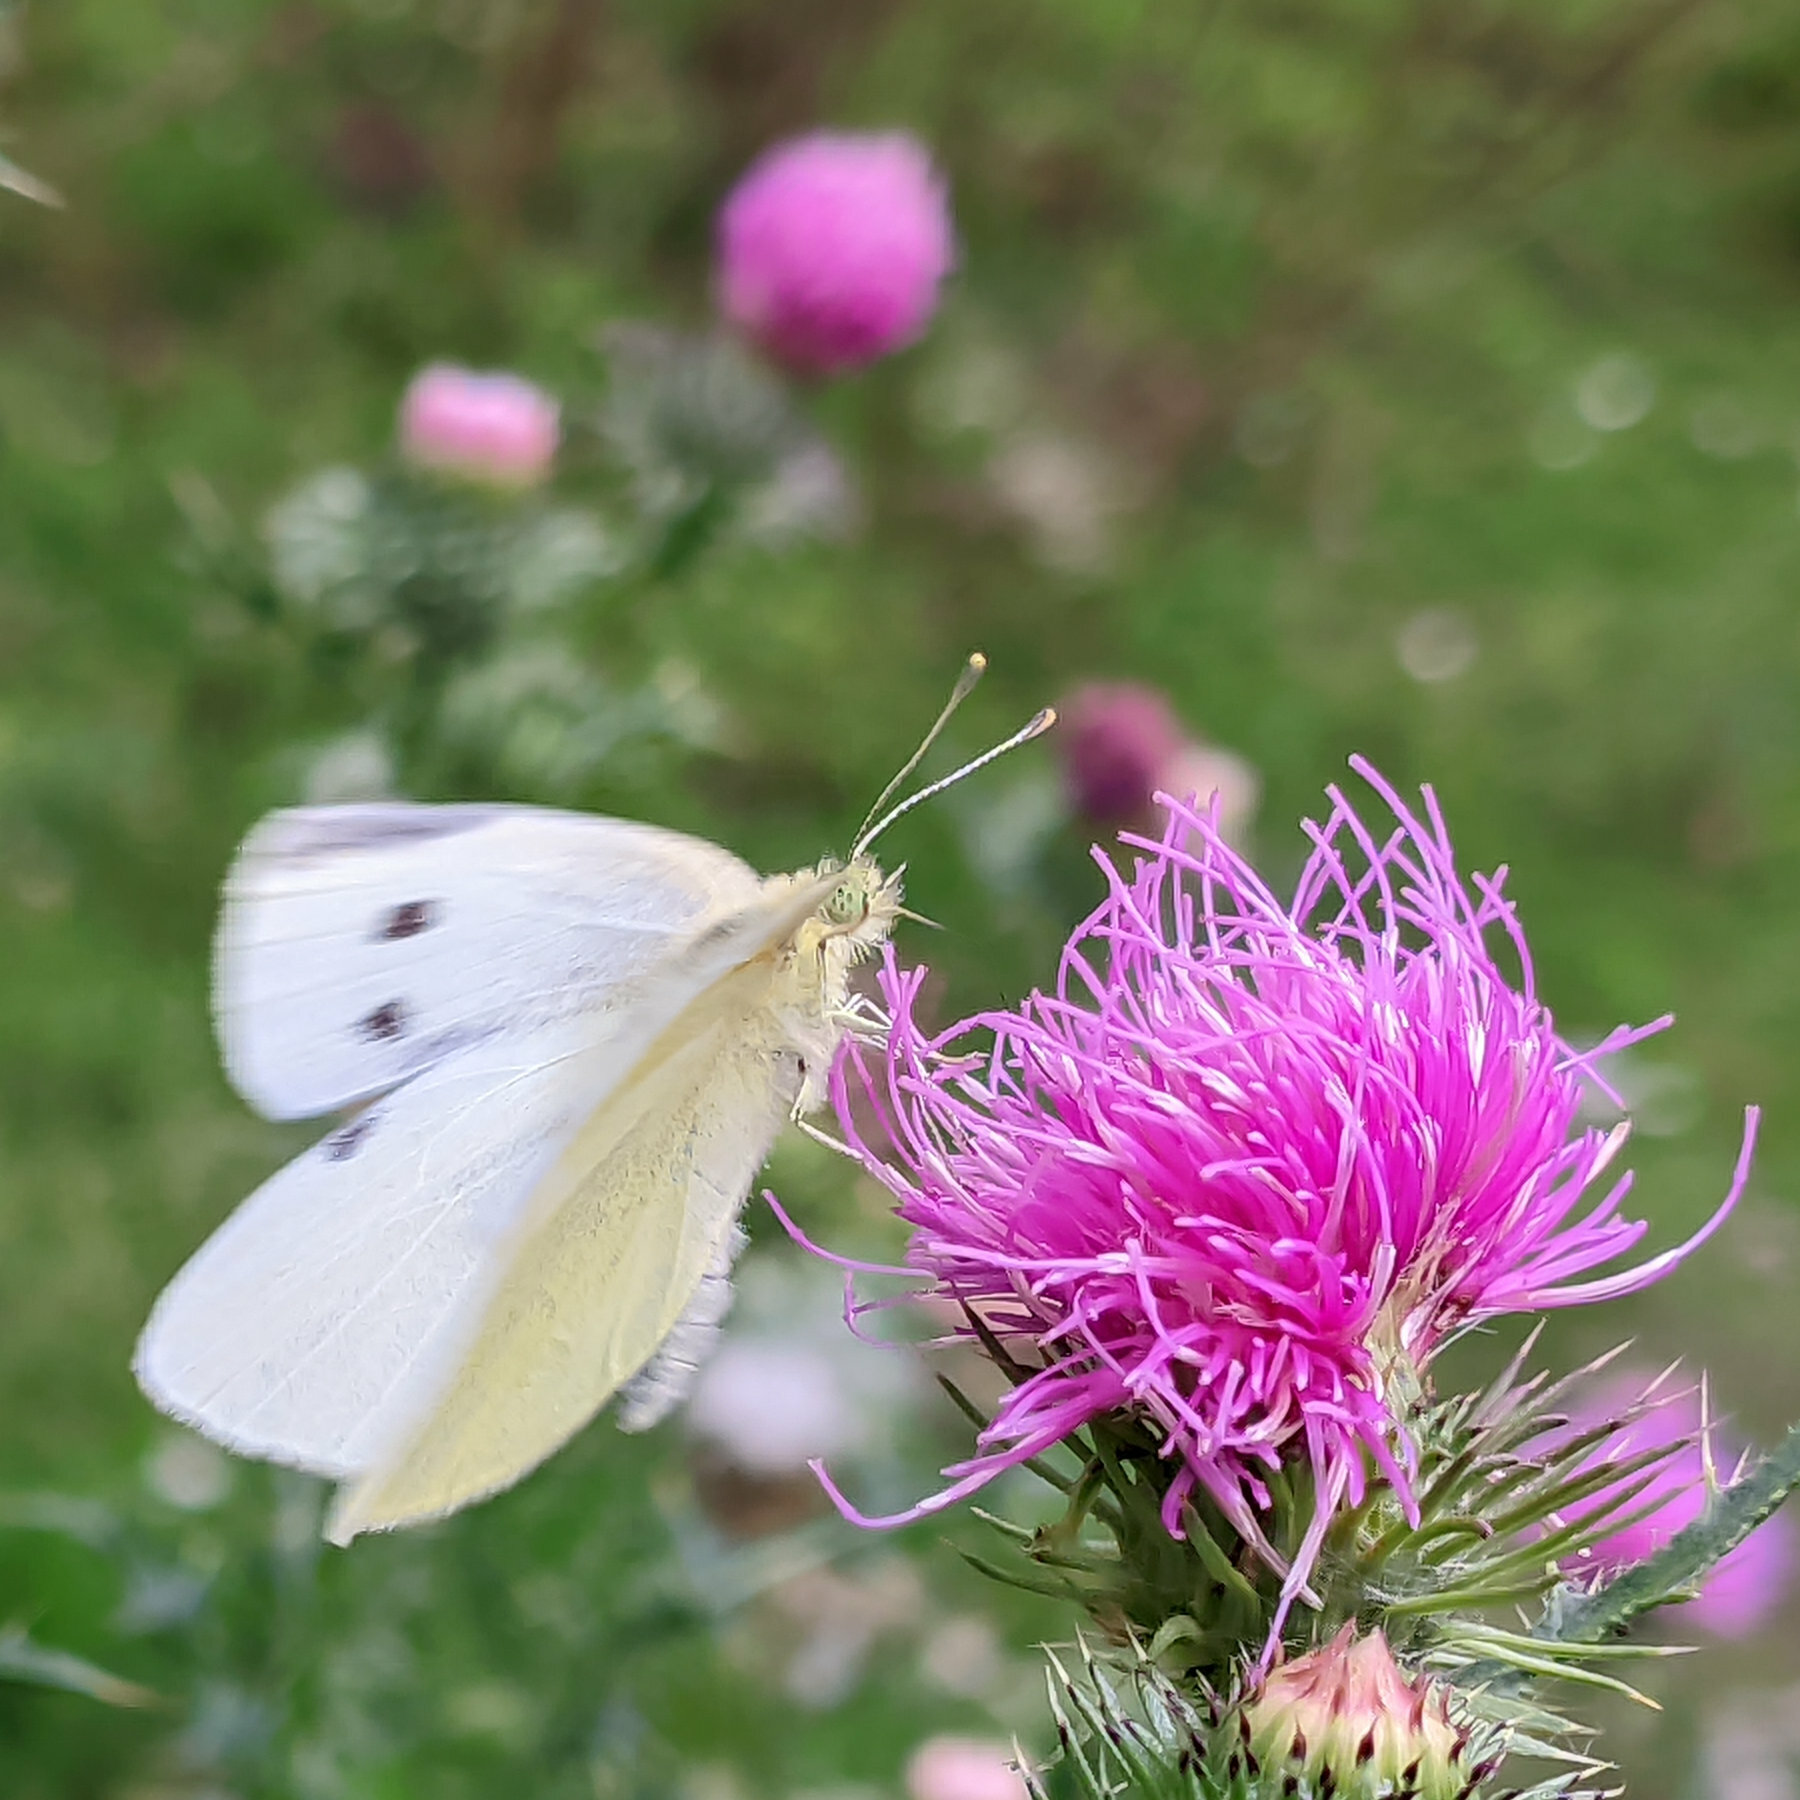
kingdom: Animalia
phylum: Arthropoda
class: Insecta
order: Lepidoptera
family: Pieridae
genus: Pieris
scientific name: Pieris rapae
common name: Small white
